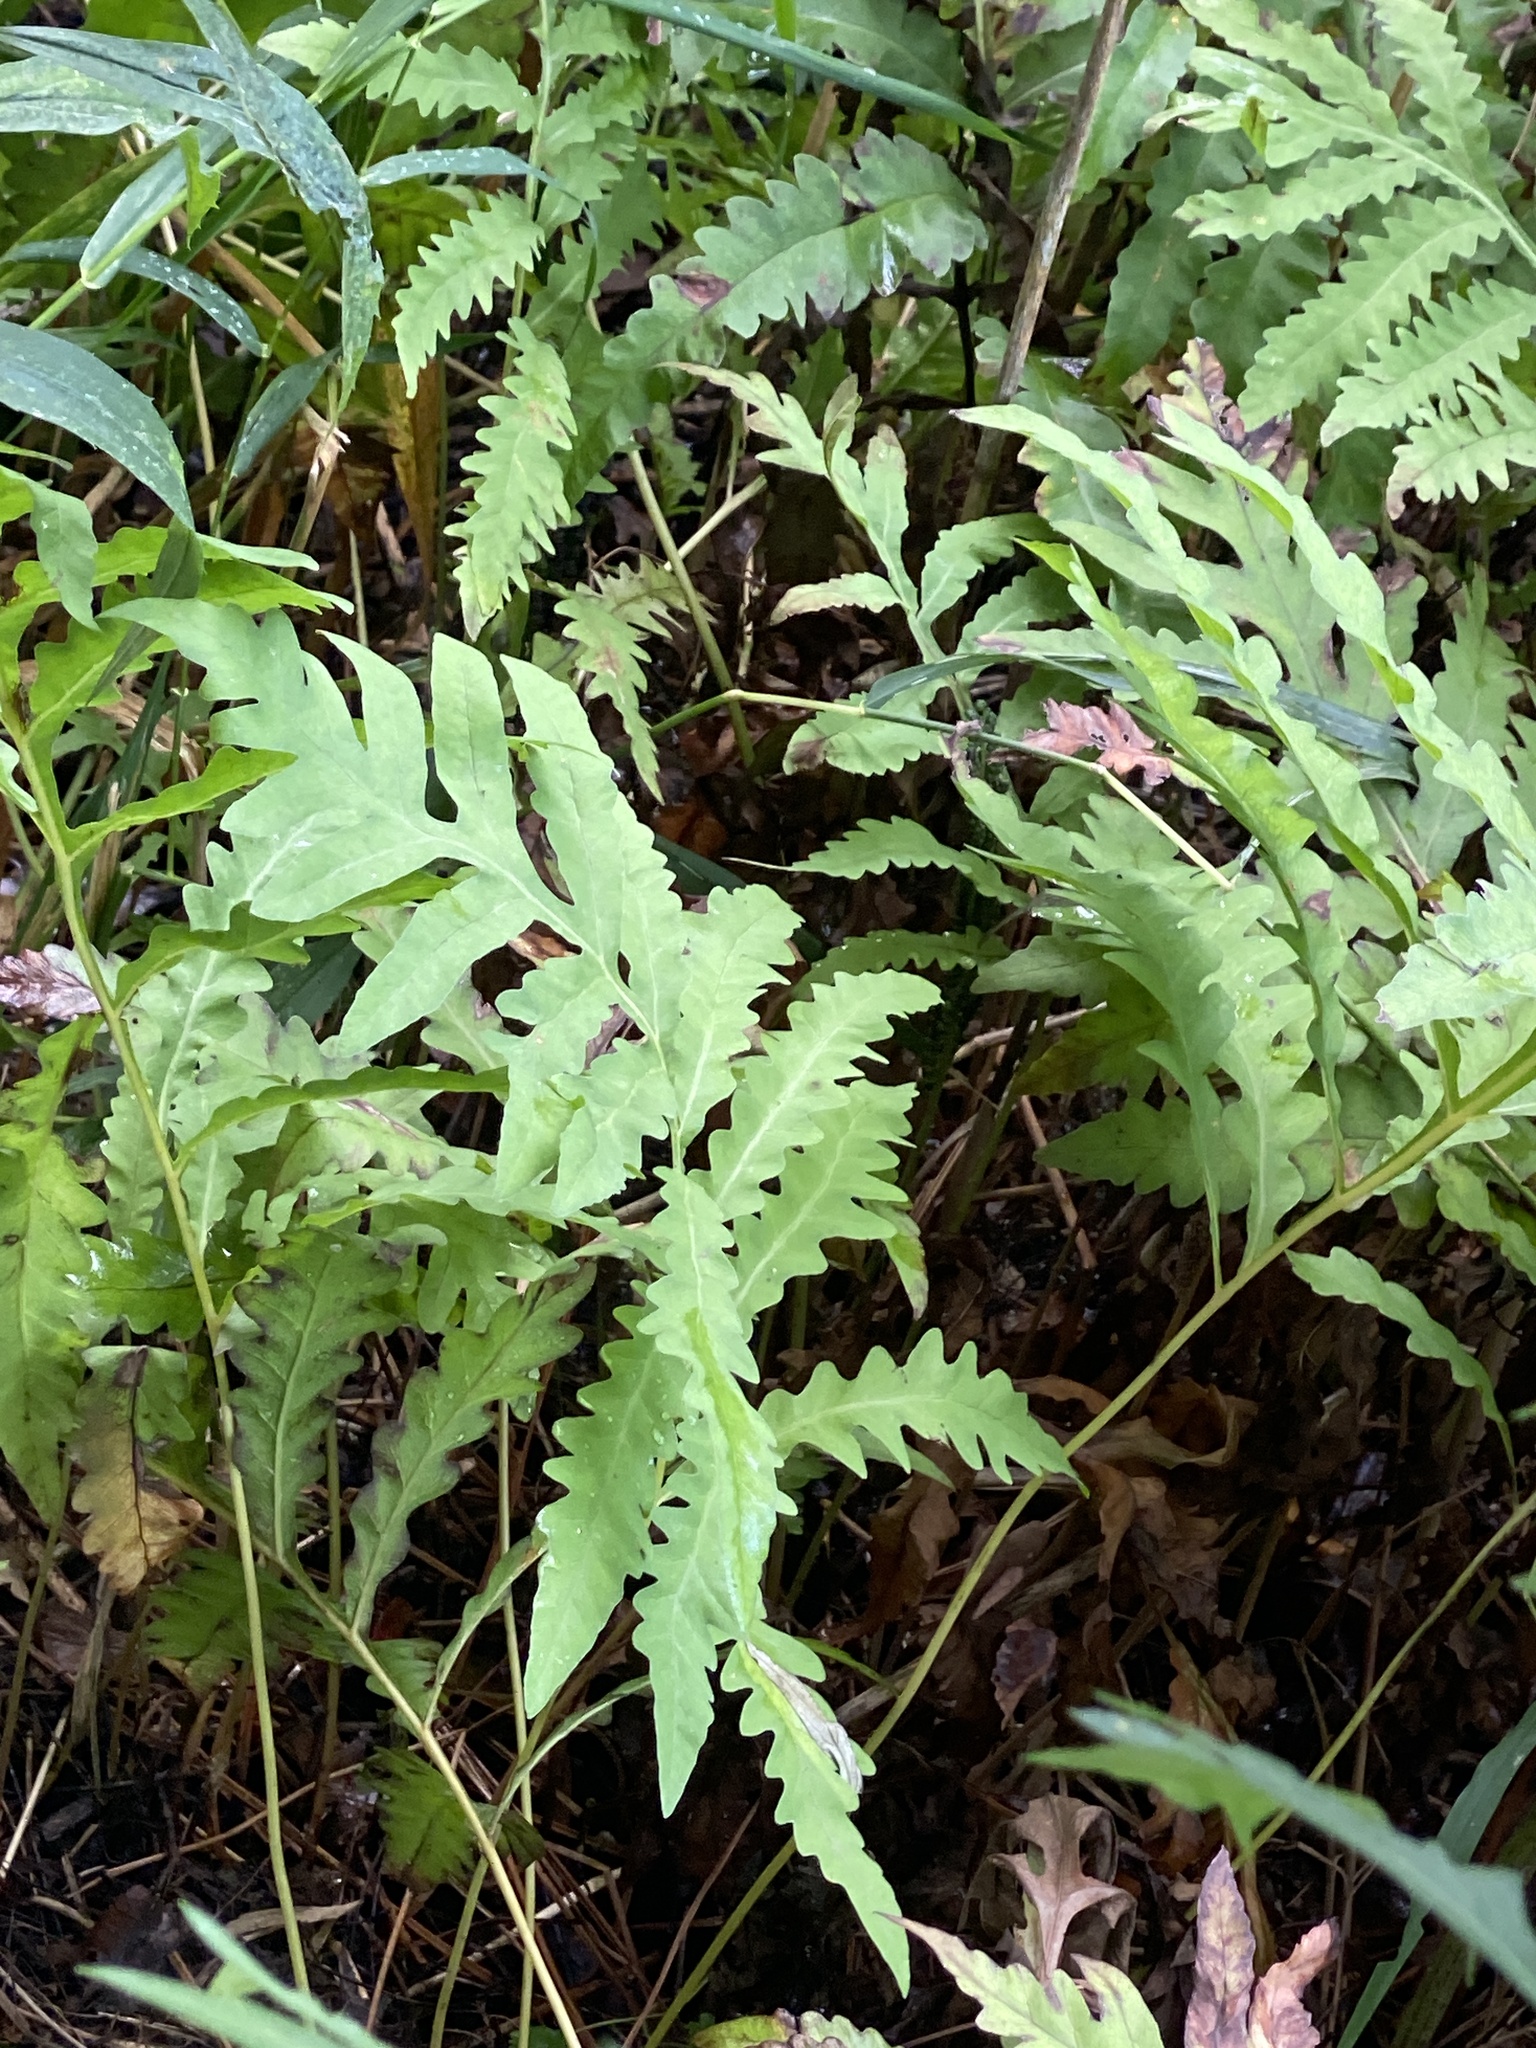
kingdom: Plantae
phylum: Tracheophyta
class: Polypodiopsida
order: Polypodiales
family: Onocleaceae
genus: Onoclea
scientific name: Onoclea sensibilis
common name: Sensitive fern
